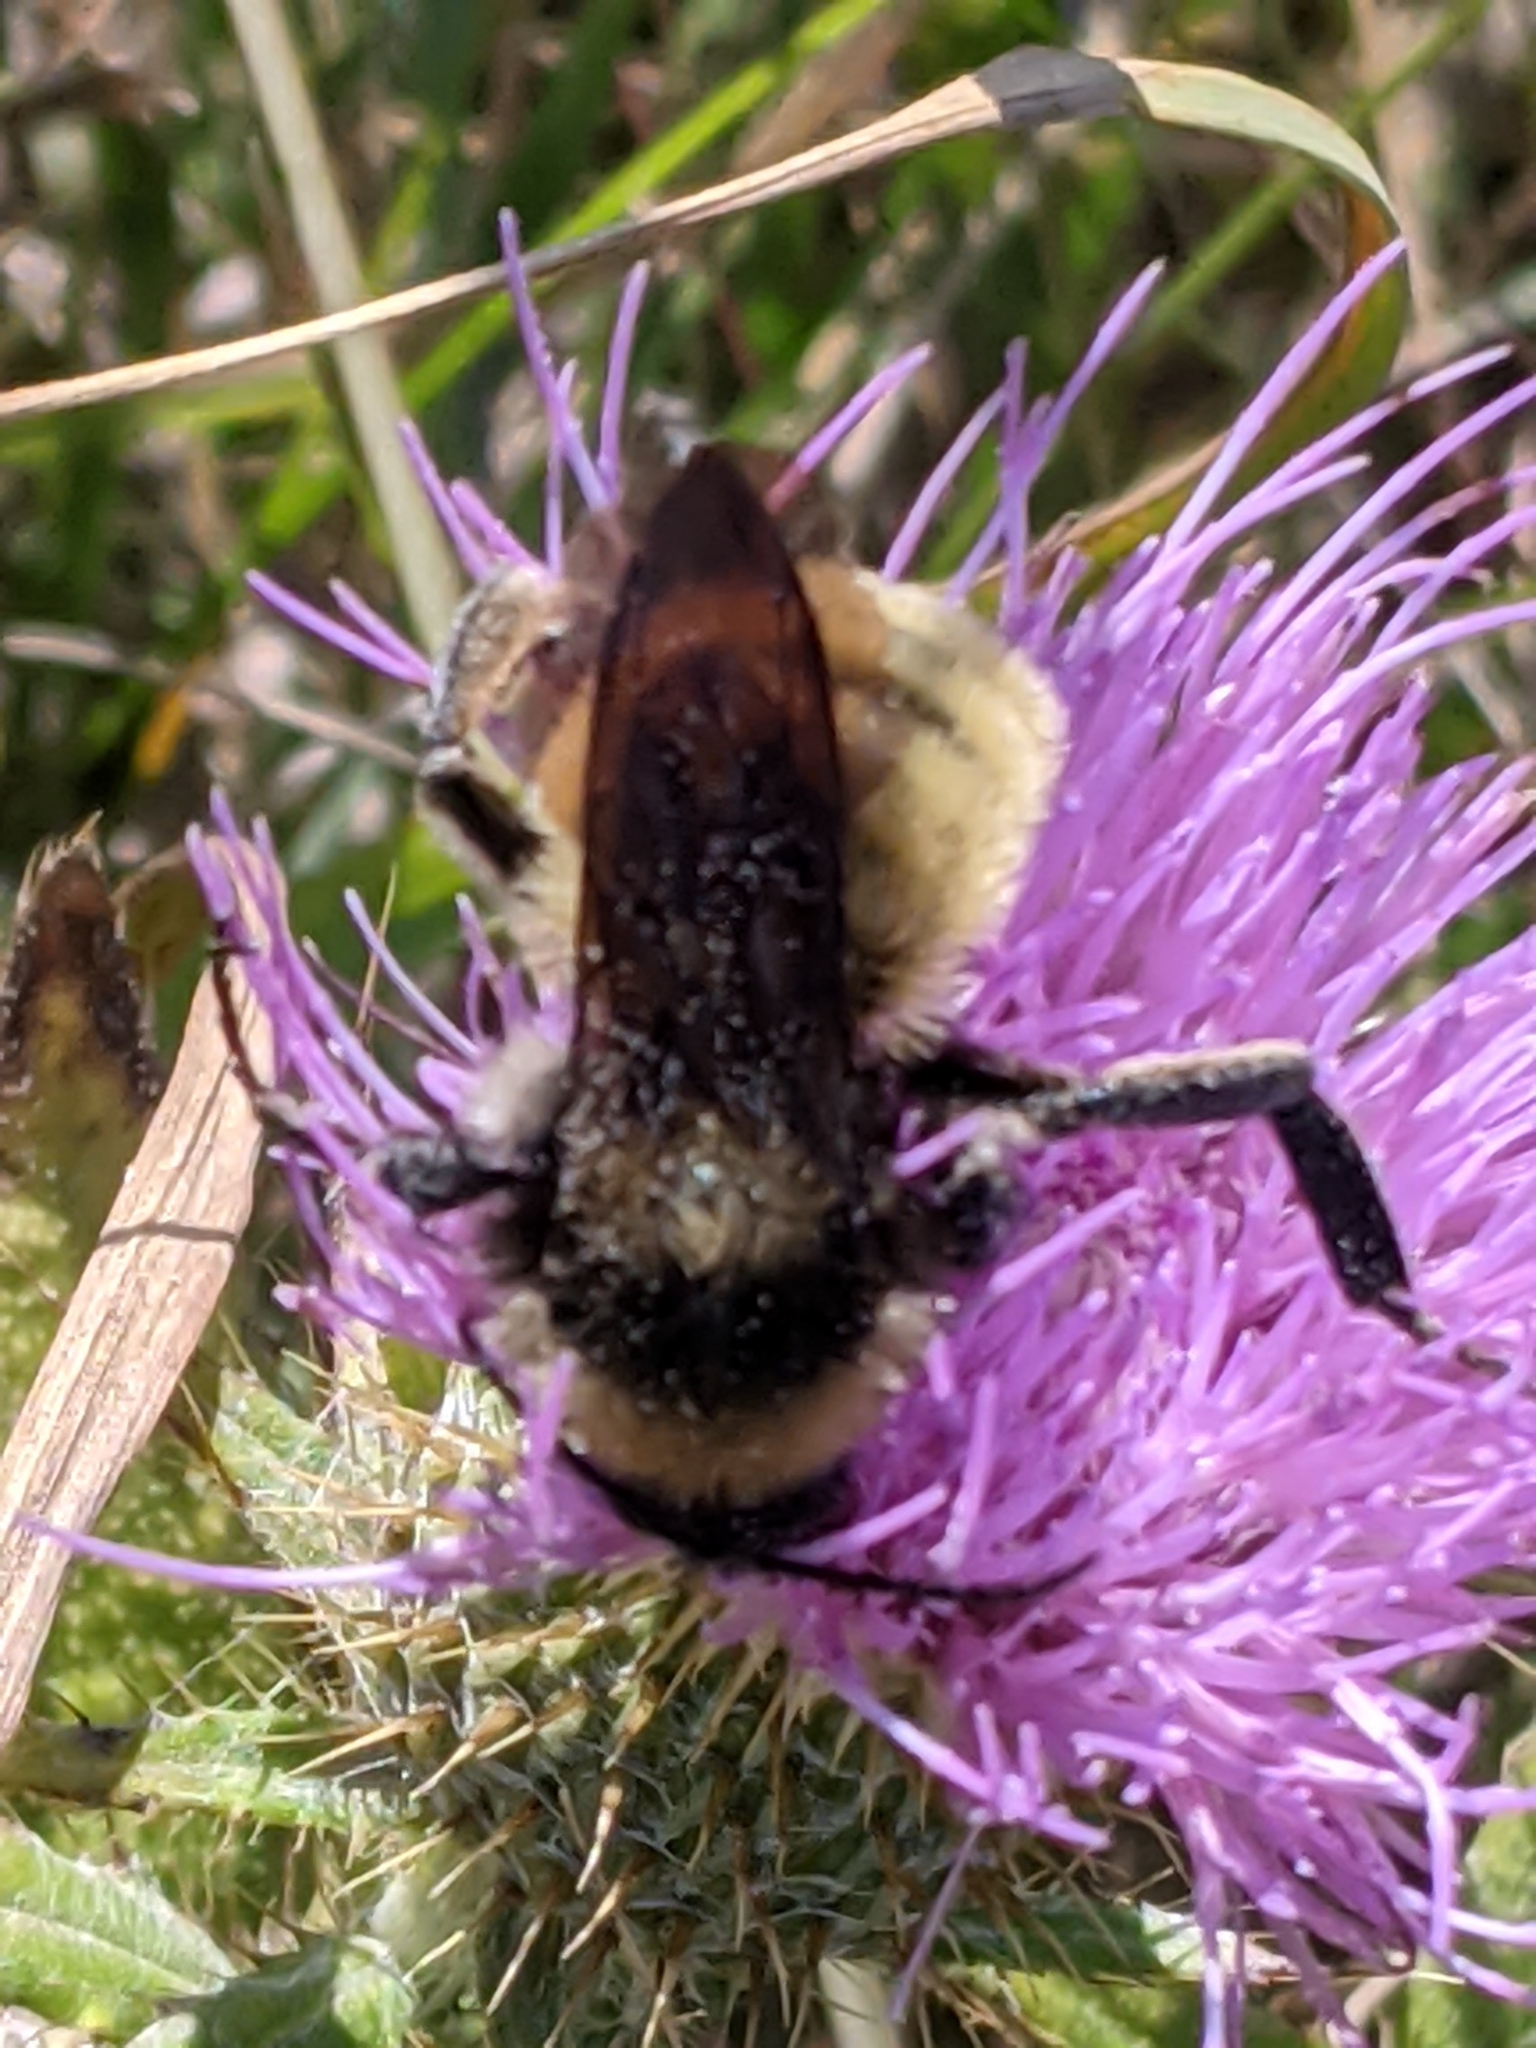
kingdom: Animalia
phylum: Arthropoda
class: Insecta
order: Hymenoptera
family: Apidae
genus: Bombus
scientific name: Bombus pensylvanicus
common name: Bumble bee
